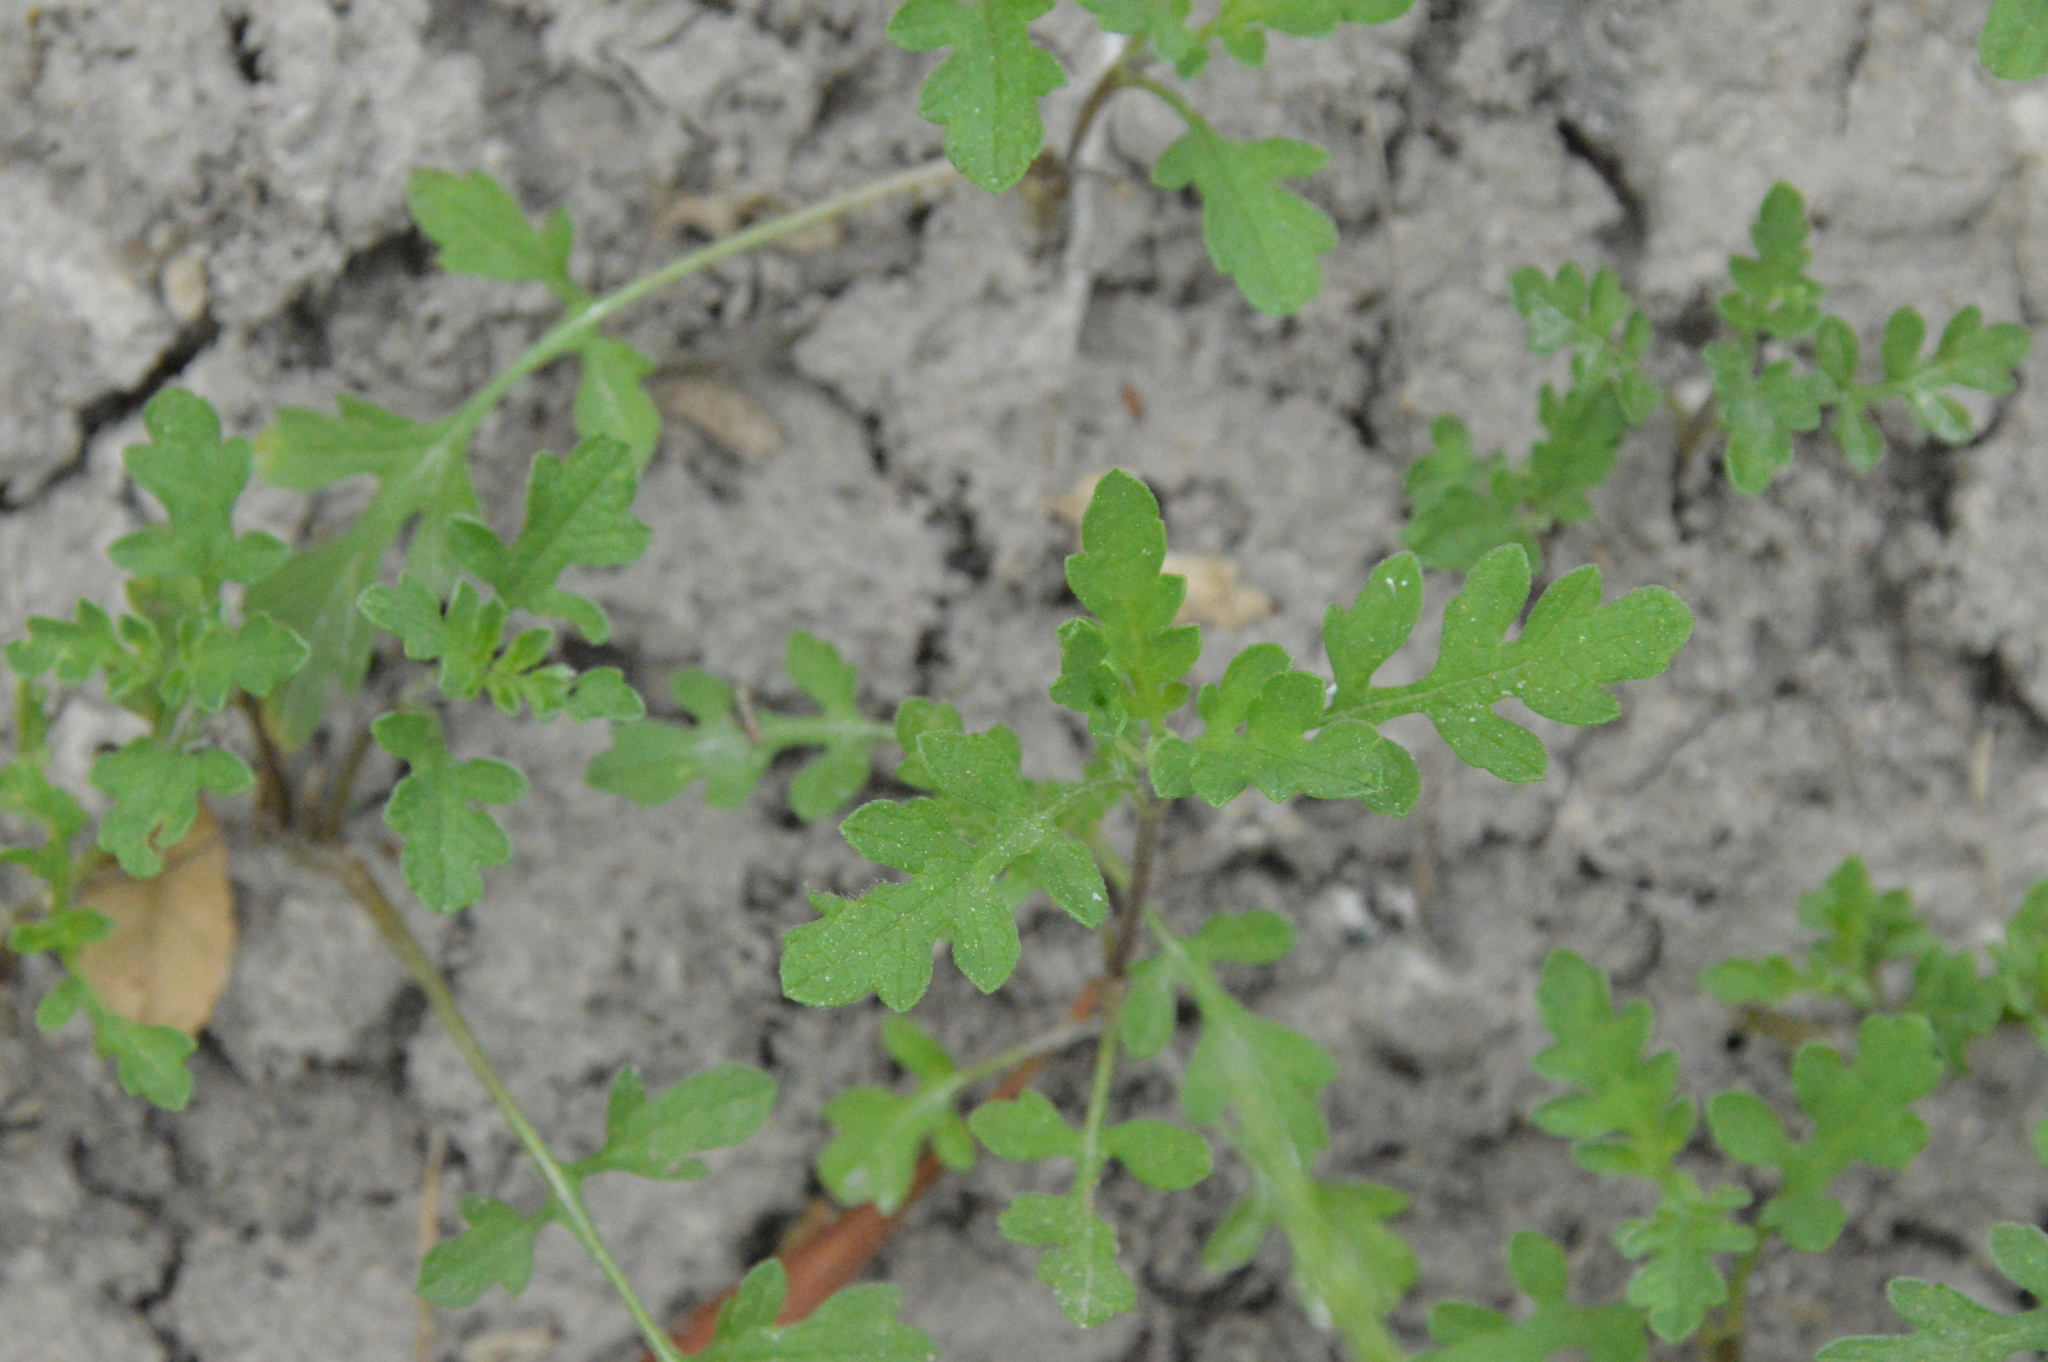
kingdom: Plantae
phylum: Tracheophyta
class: Magnoliopsida
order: Asterales
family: Asteraceae
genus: Ambrosia
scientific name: Ambrosia psilostachya
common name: Perennial ragweed
